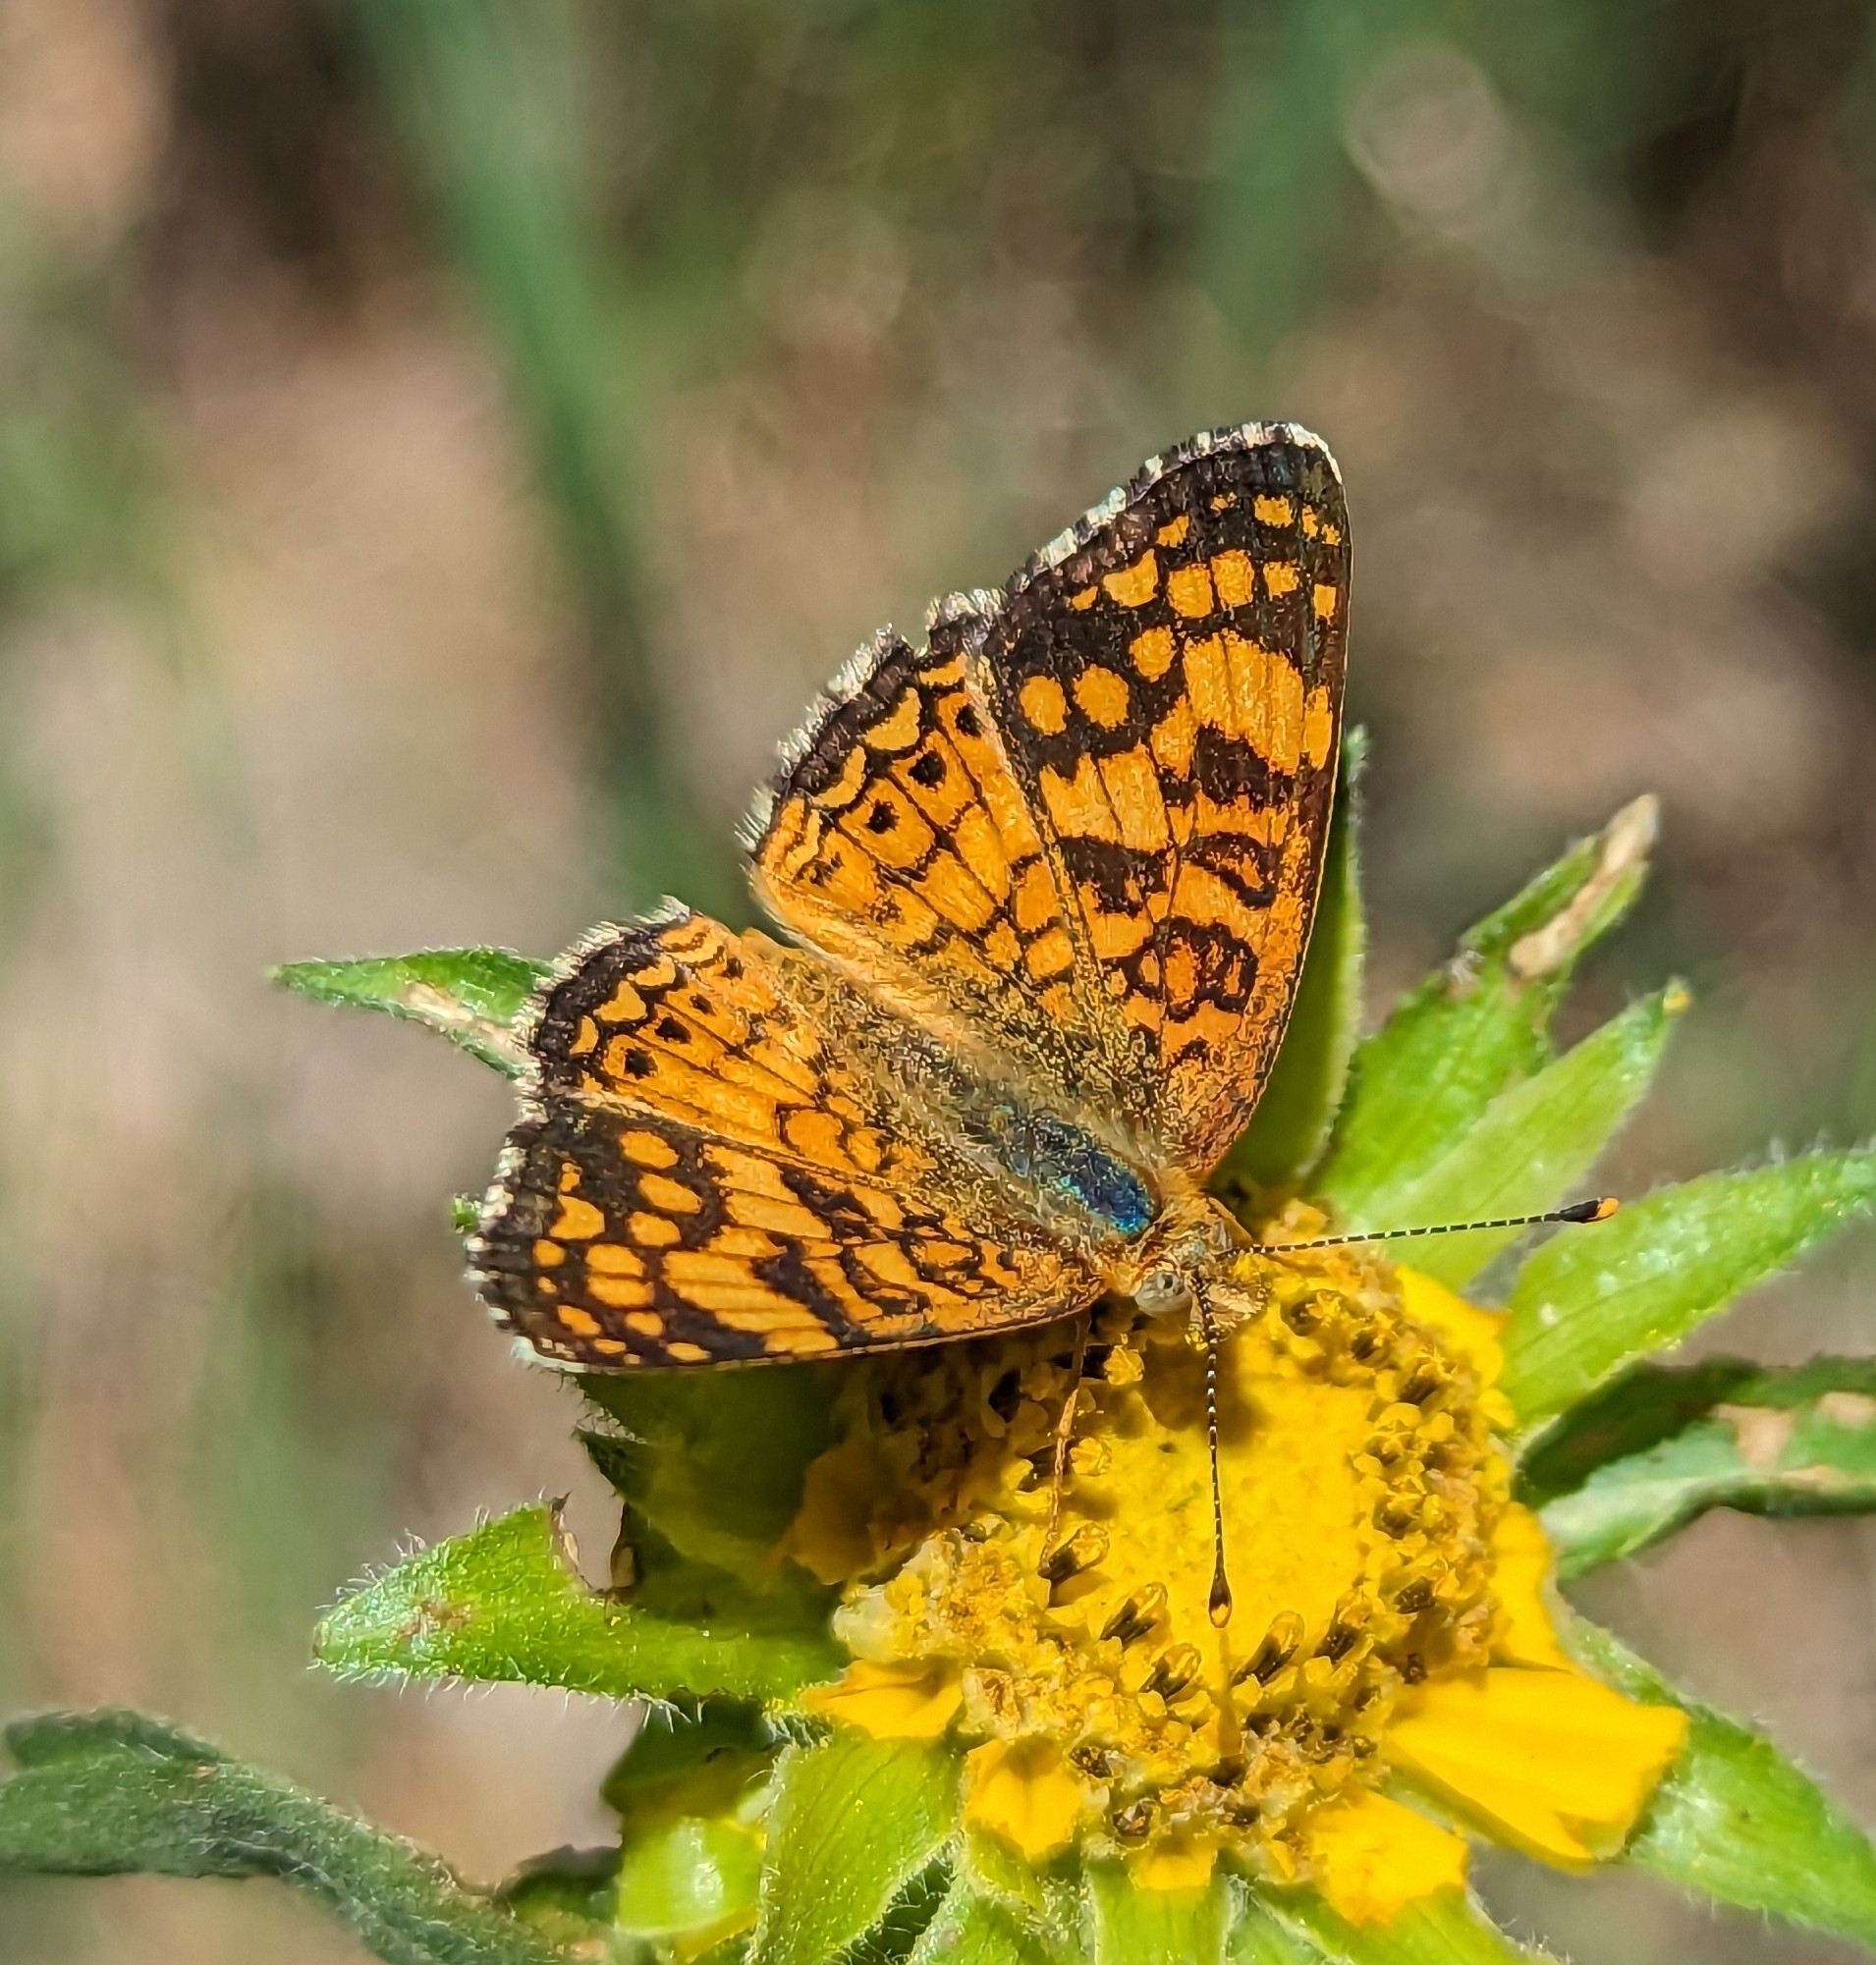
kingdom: Animalia
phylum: Arthropoda
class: Insecta
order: Lepidoptera
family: Nymphalidae
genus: Eresia
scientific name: Eresia aveyrona
